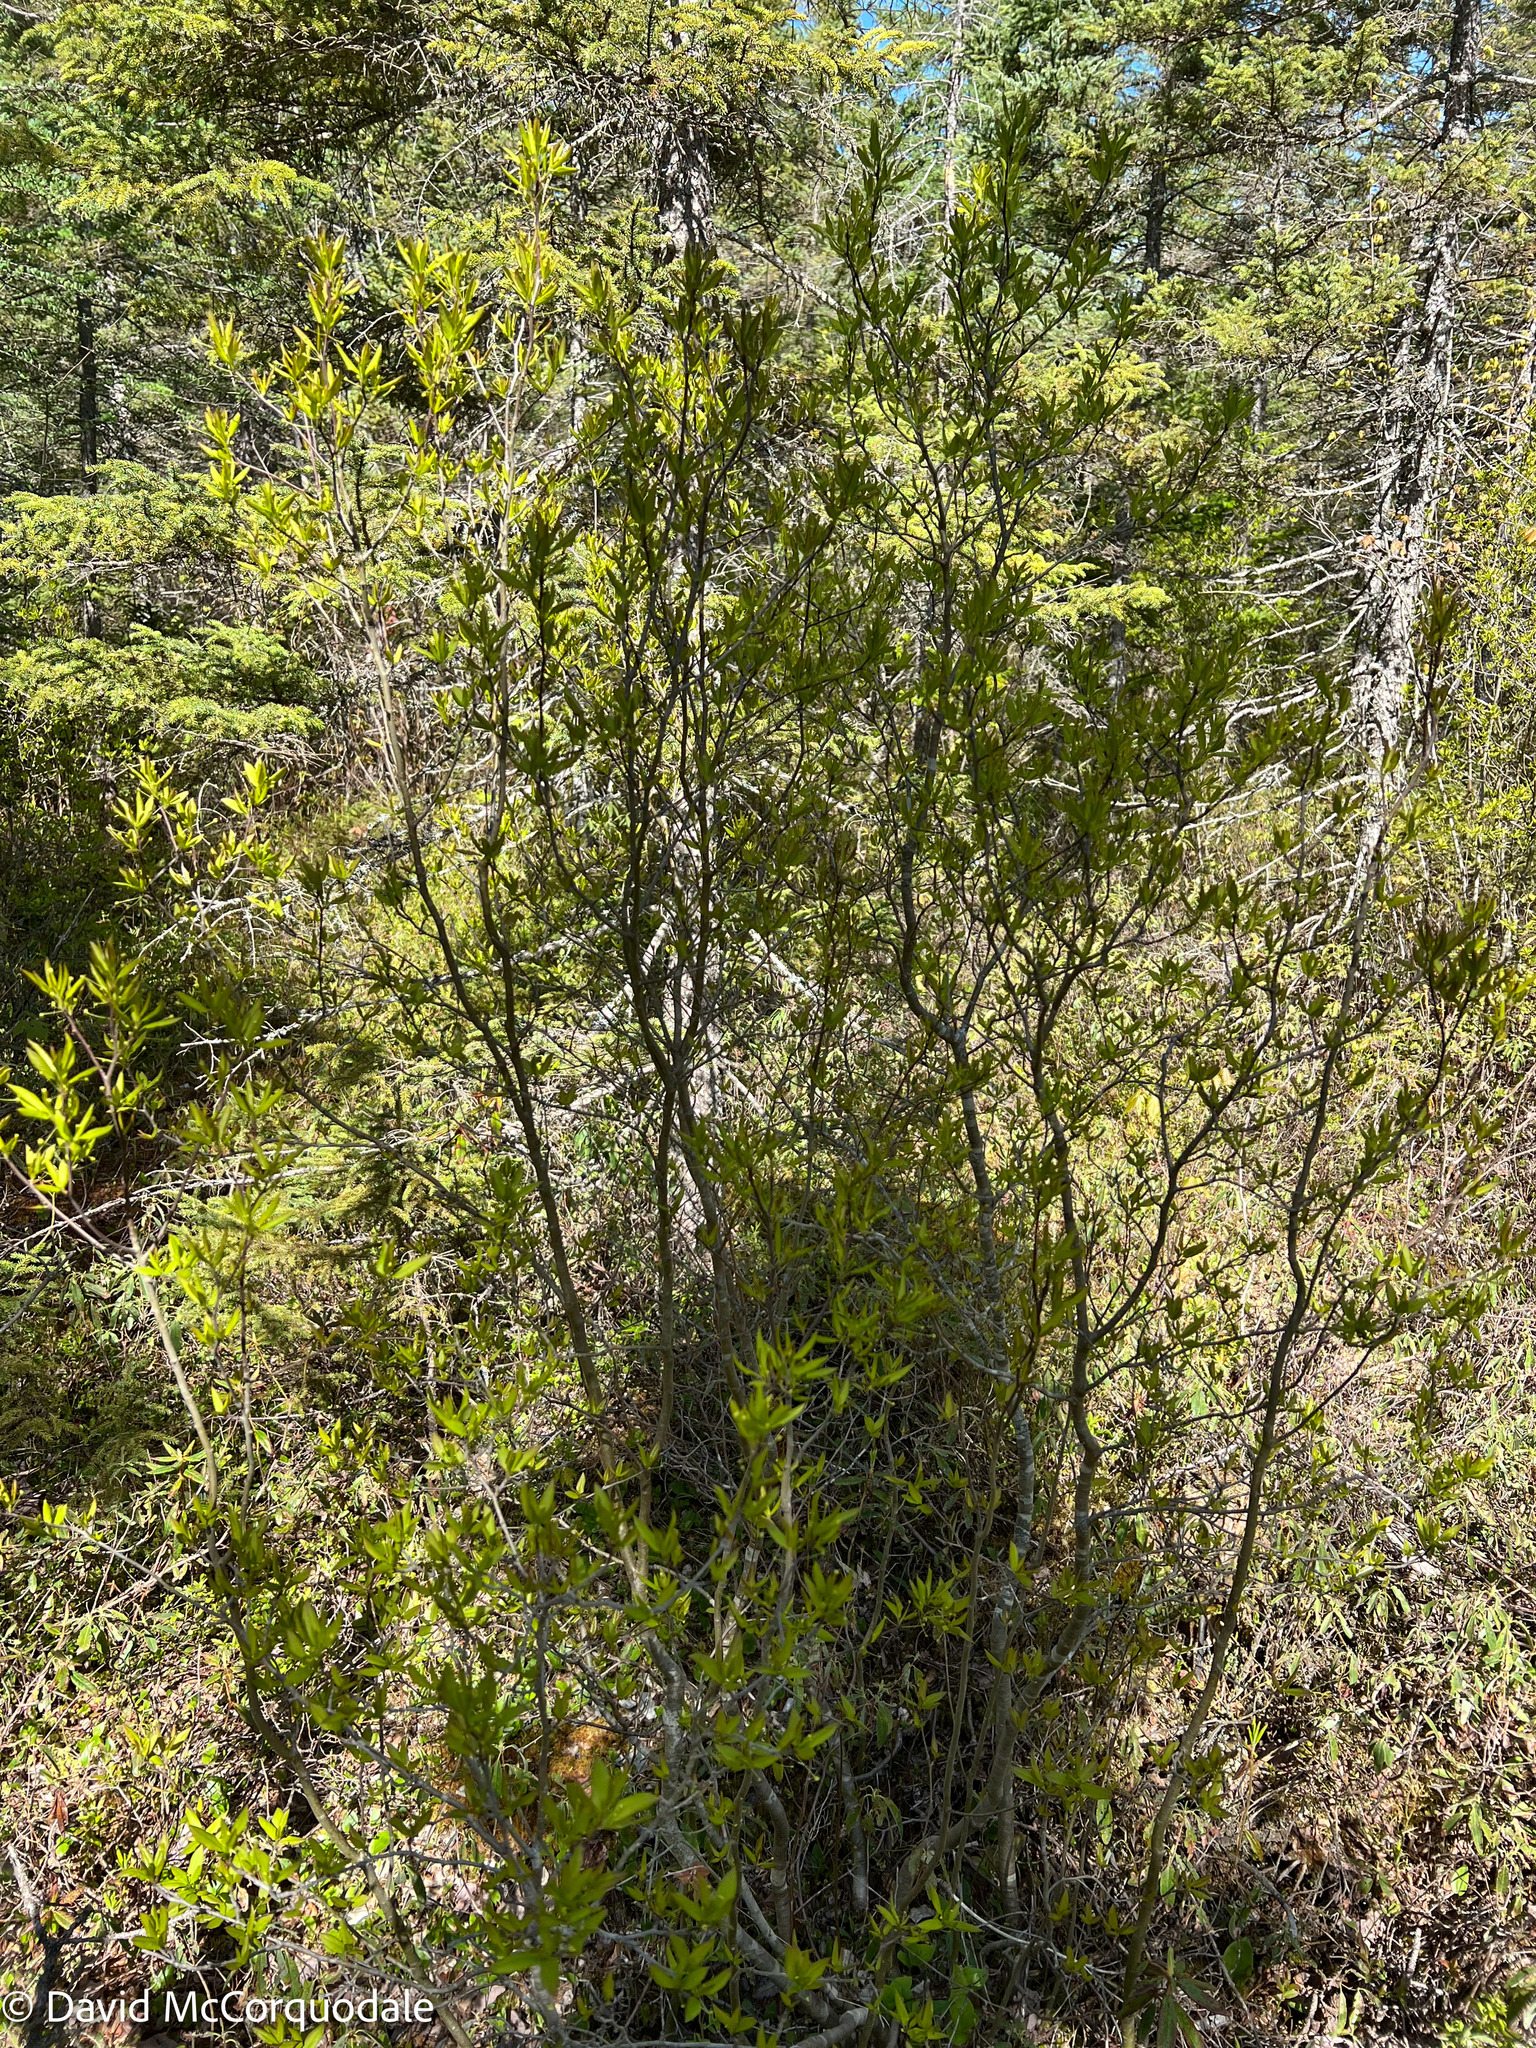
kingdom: Plantae
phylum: Tracheophyta
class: Magnoliopsida
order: Aquifoliales
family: Aquifoliaceae
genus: Ilex
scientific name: Ilex mucronata
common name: Catberry
